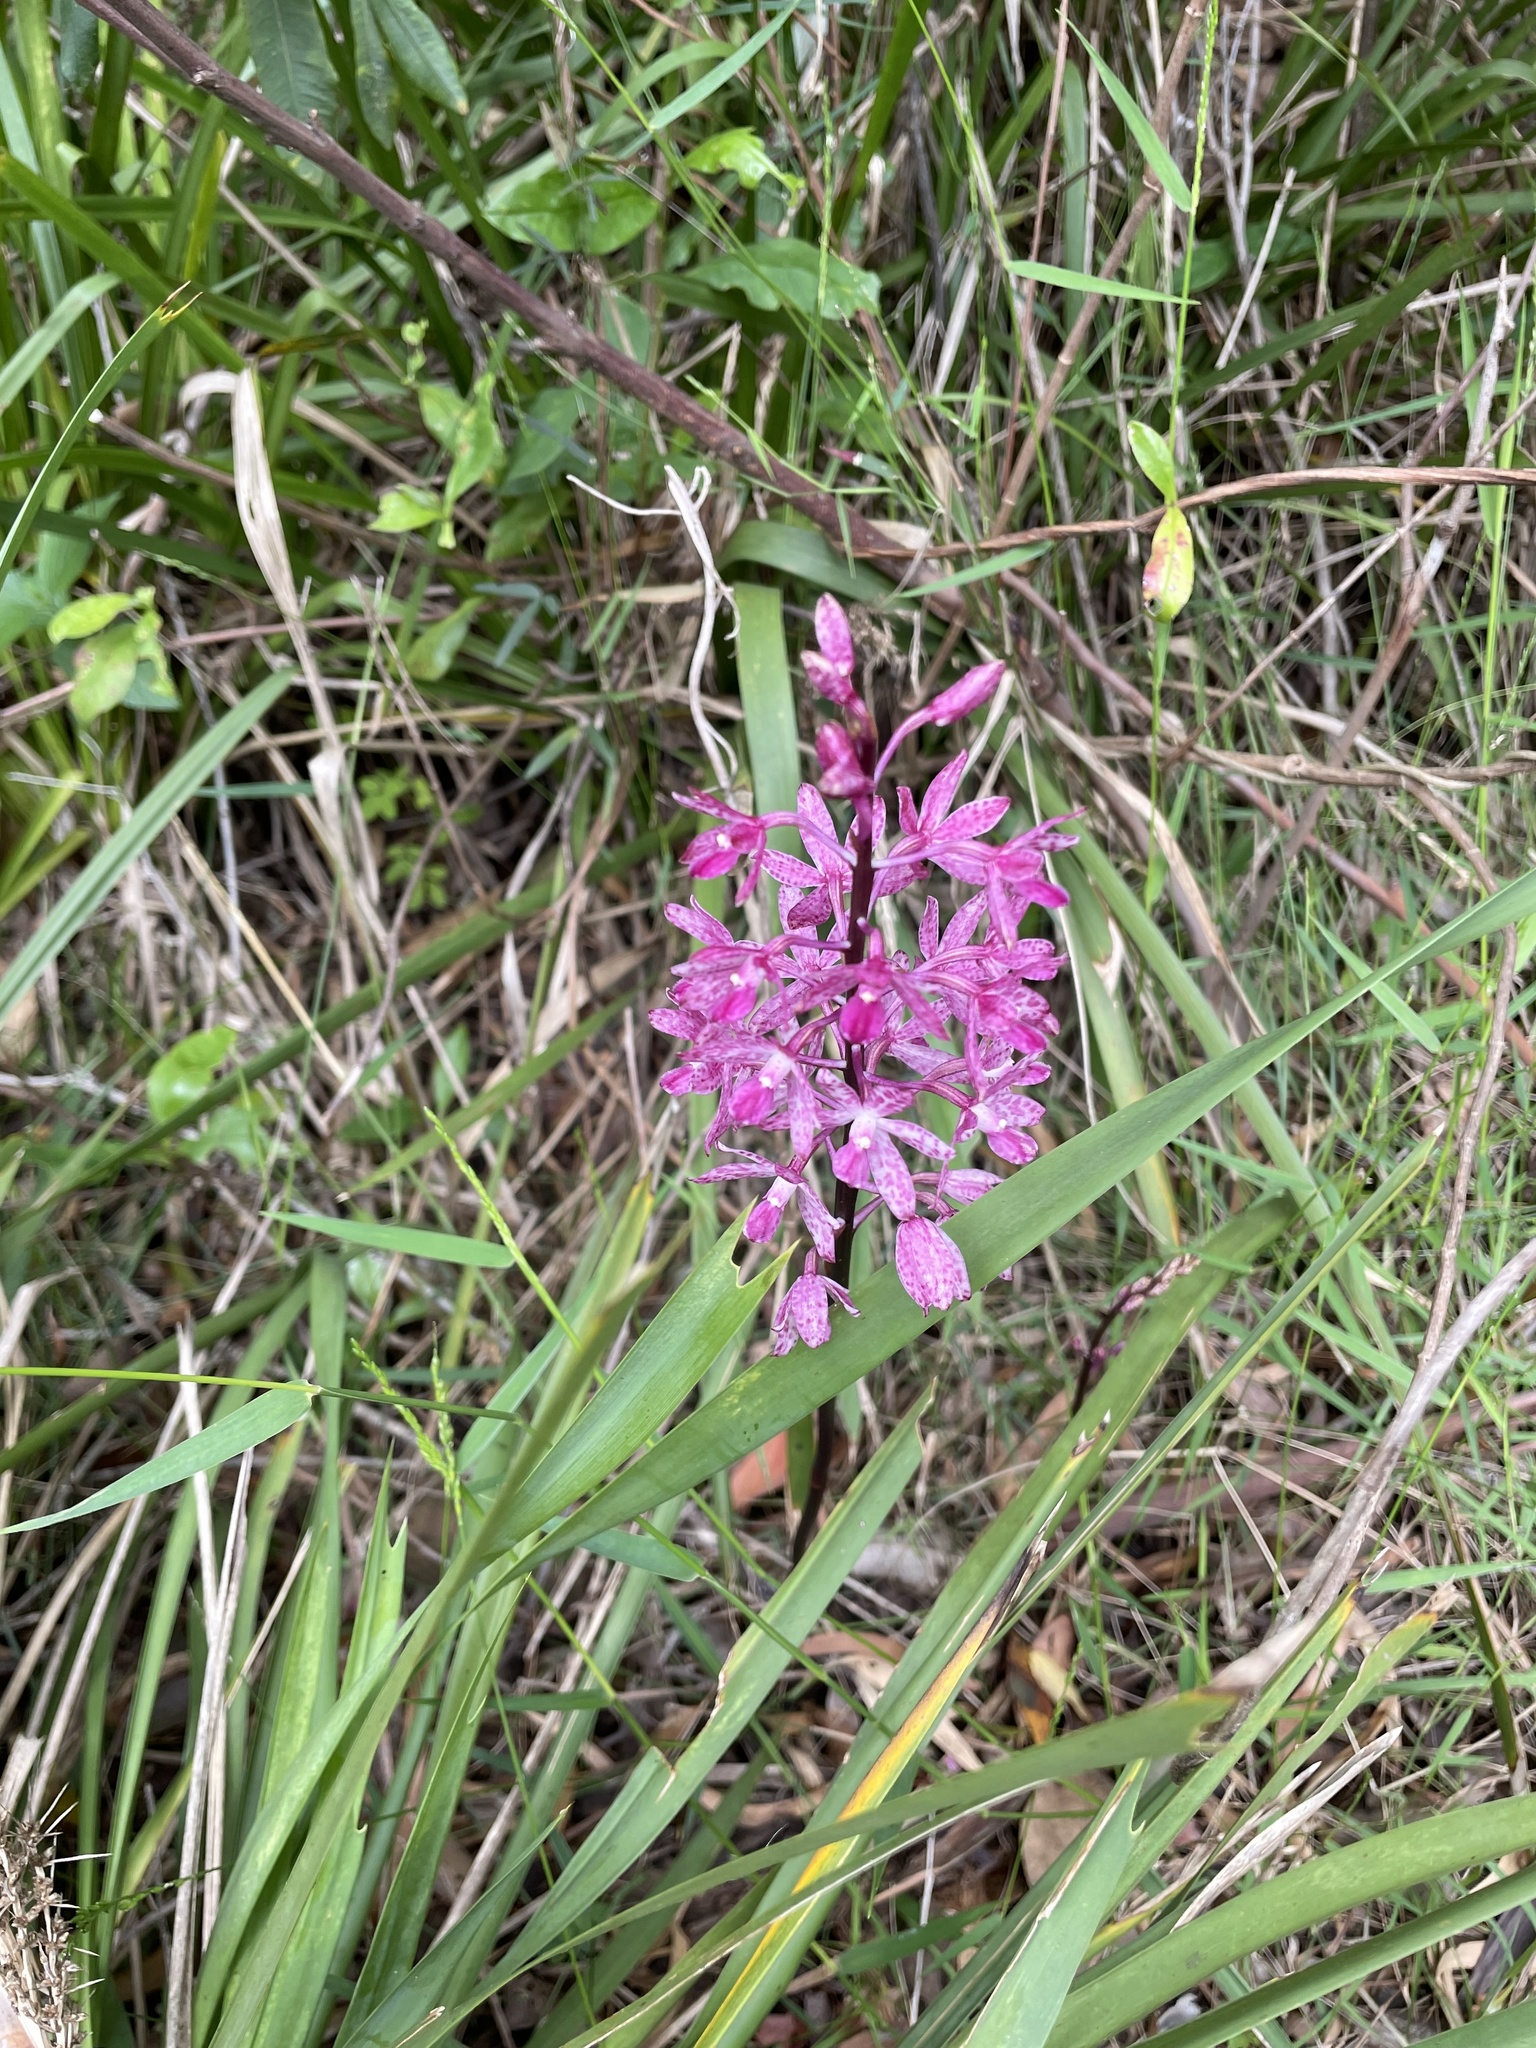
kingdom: Plantae
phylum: Tracheophyta
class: Liliopsida
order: Asparagales
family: Orchidaceae
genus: Dipodium
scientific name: Dipodium squamatum
